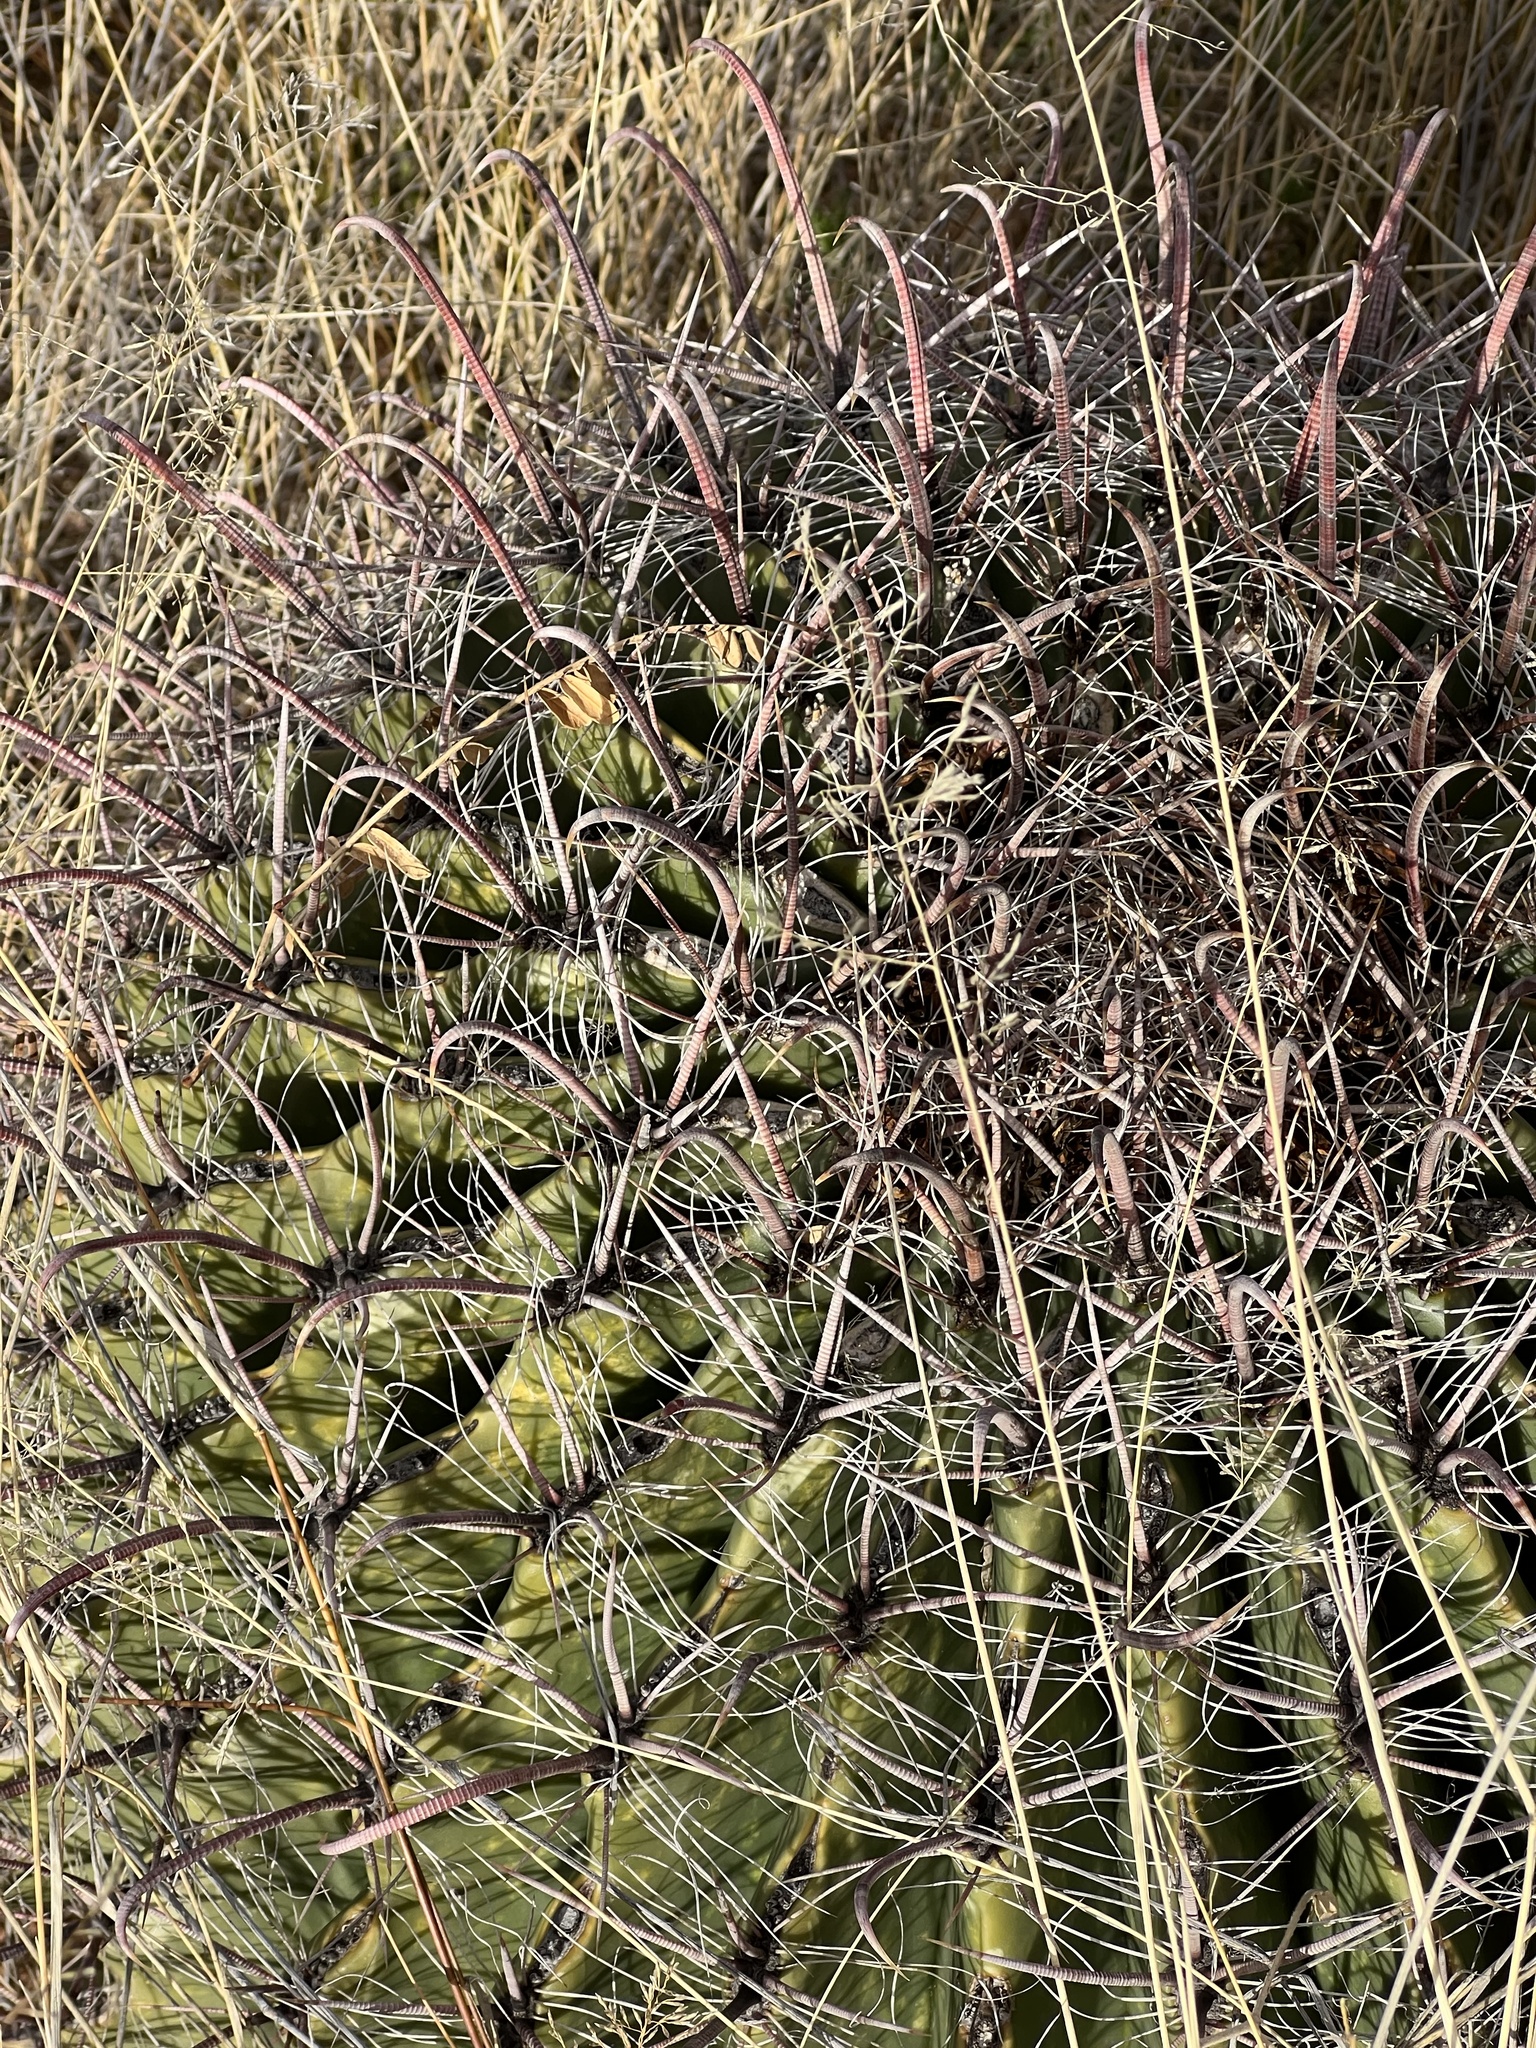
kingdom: Plantae
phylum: Tracheophyta
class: Magnoliopsida
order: Caryophyllales
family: Cactaceae
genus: Ferocactus
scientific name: Ferocactus wislizeni
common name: Candy barrel cactus
